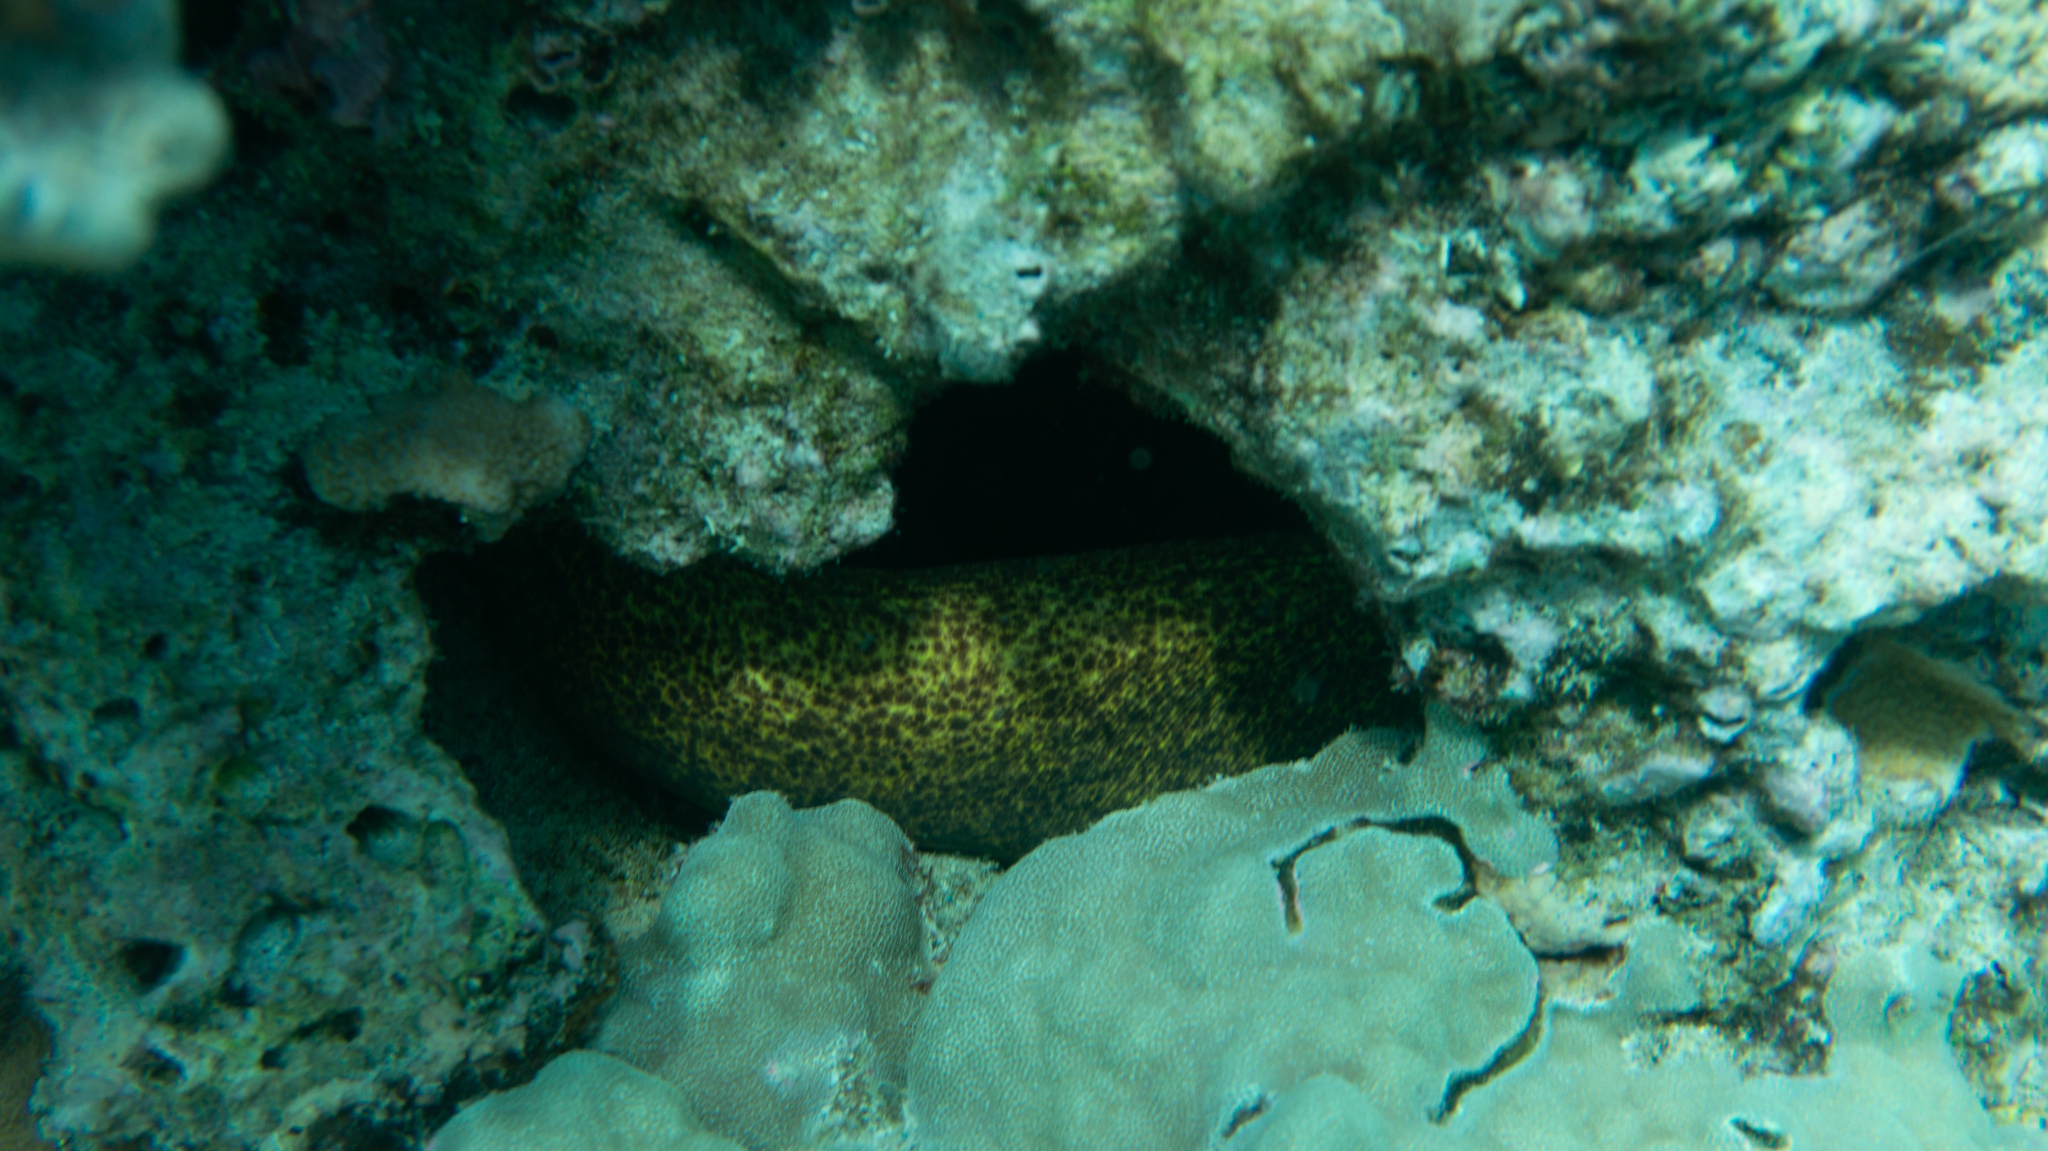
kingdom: Animalia
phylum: Chordata
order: Anguilliformes
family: Muraenidae
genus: Gymnothorax
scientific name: Gymnothorax flavimarginatus
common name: Yellow-edged moray
